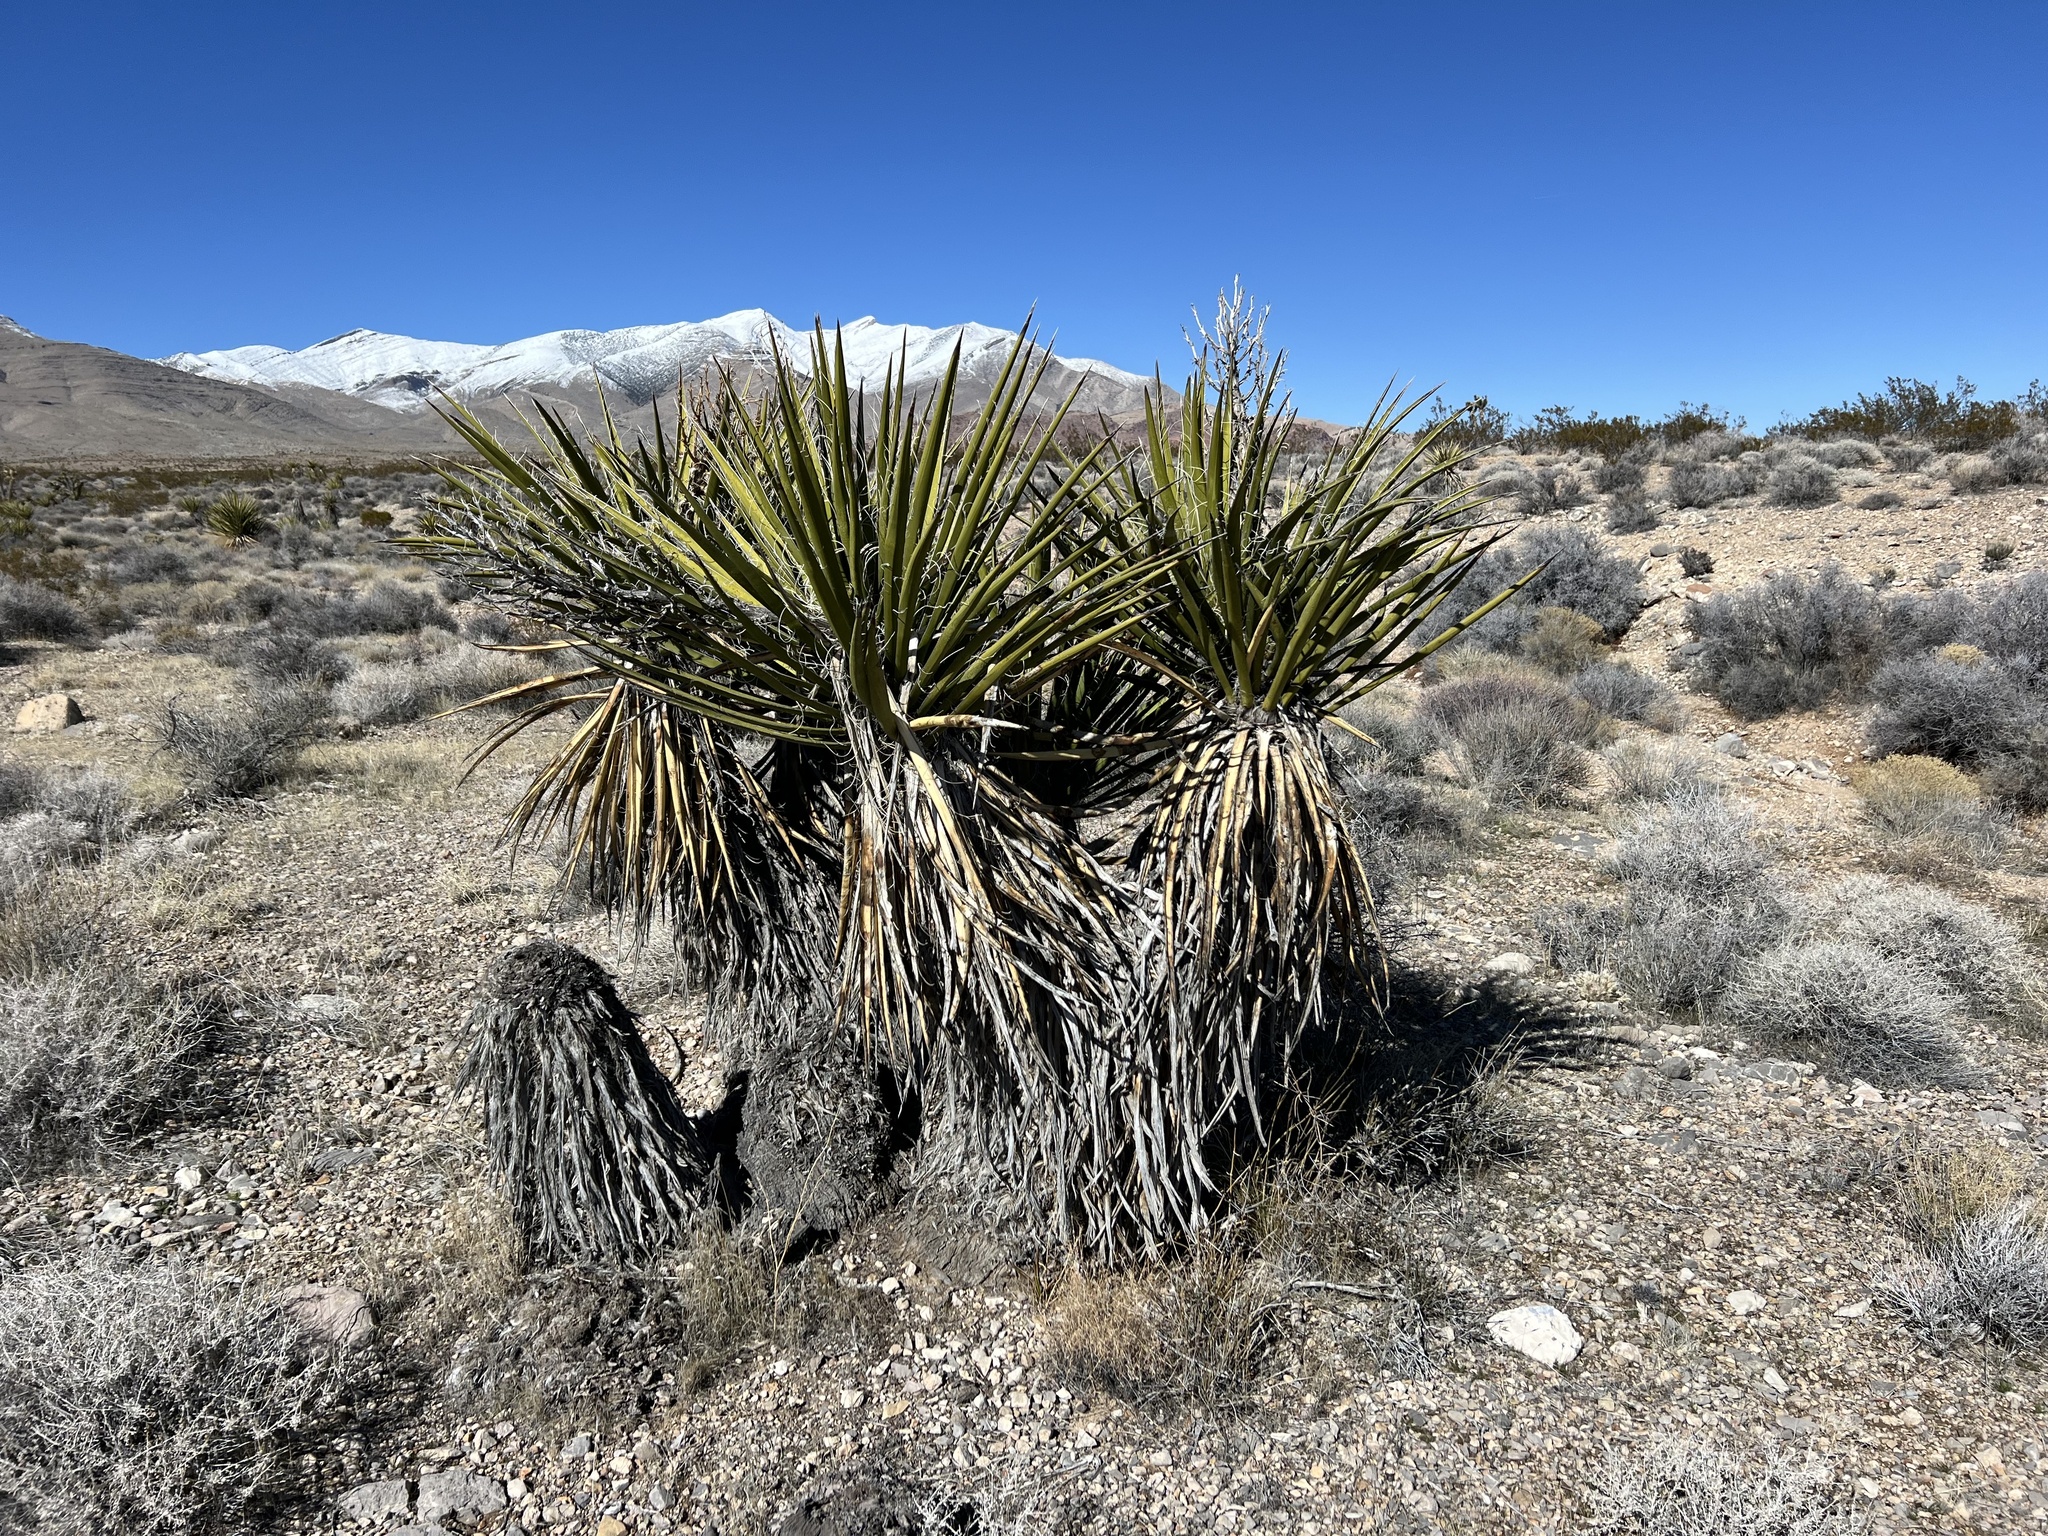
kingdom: Plantae
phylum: Tracheophyta
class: Liliopsida
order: Asparagales
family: Asparagaceae
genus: Yucca
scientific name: Yucca schidigera
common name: Mojave yucca
